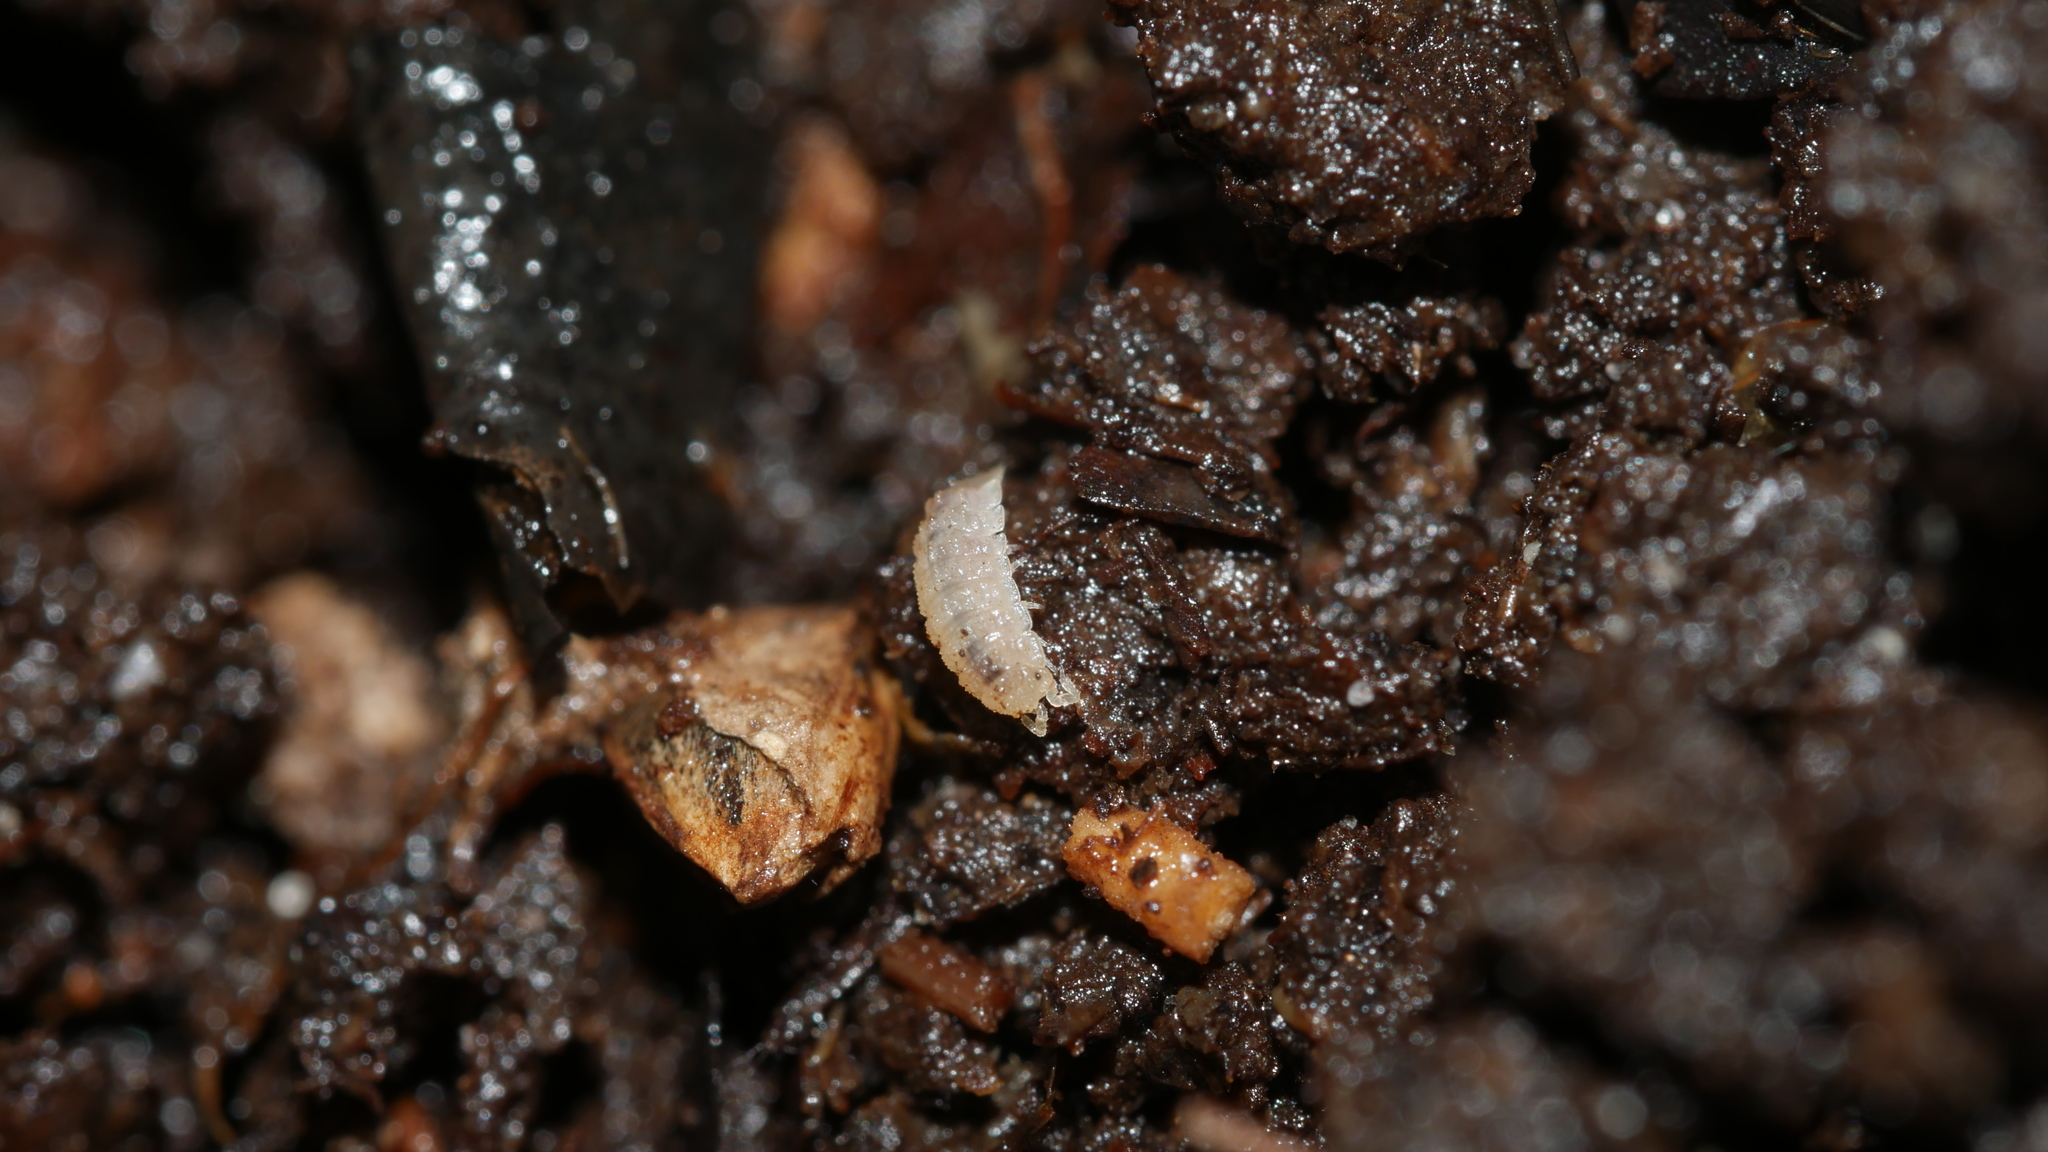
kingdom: Animalia
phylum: Arthropoda
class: Malacostraca
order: Isopoda
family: Trichoniscidae
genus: Haplophthalmus
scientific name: Haplophthalmus danicus
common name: Pillbug
